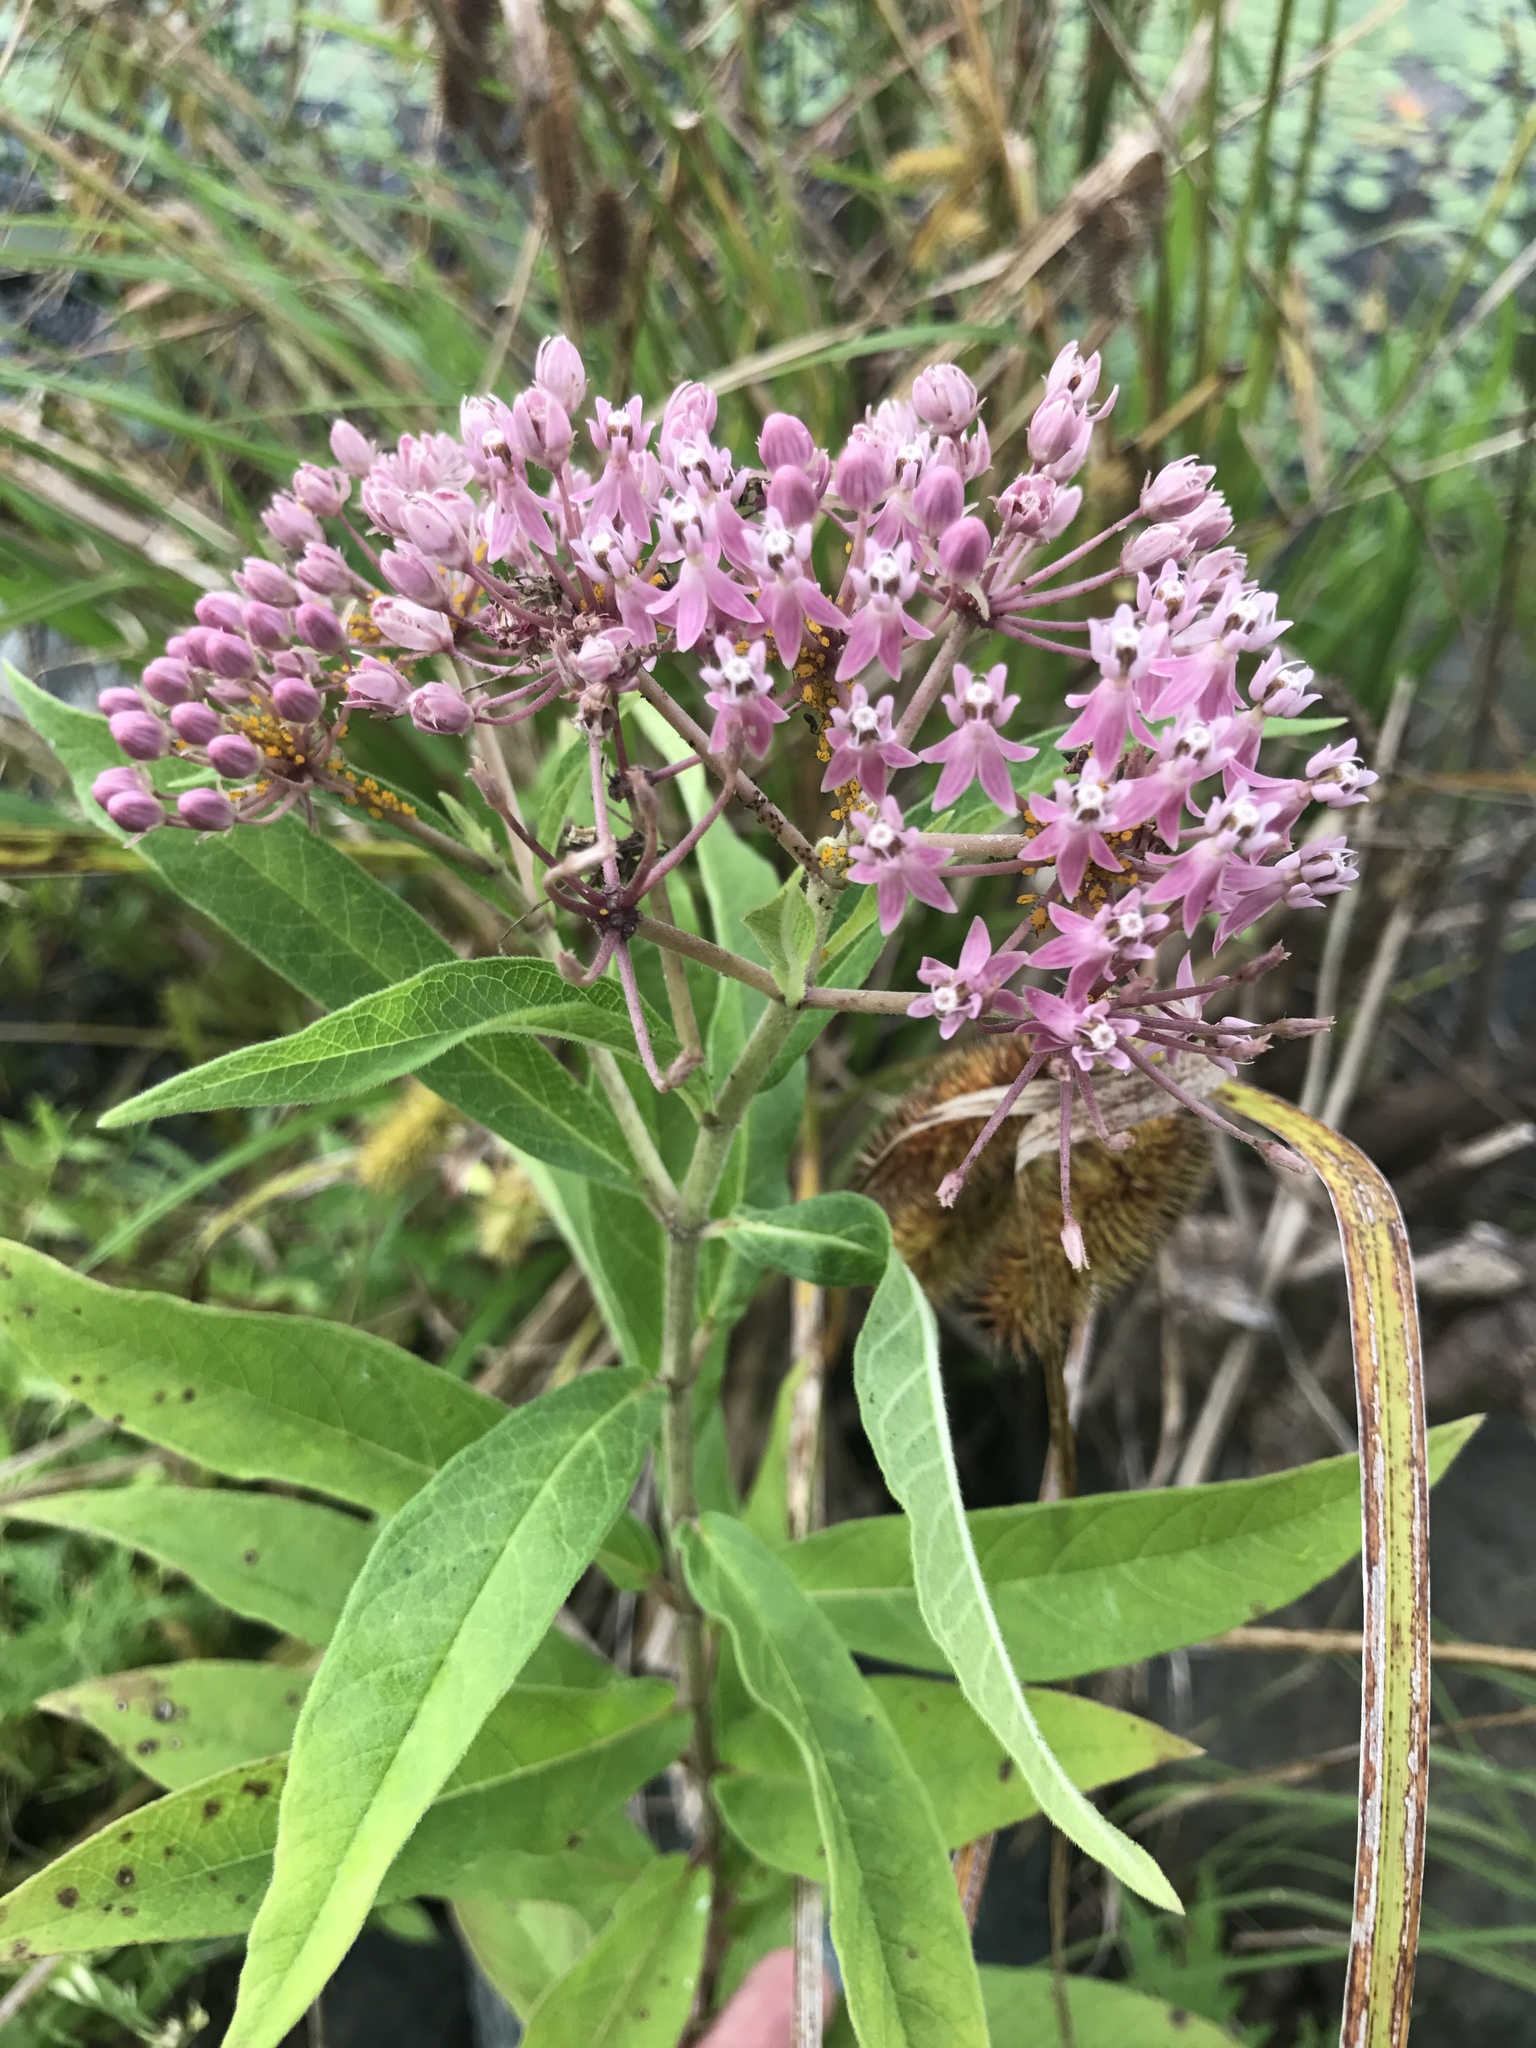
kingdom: Plantae
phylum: Tracheophyta
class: Magnoliopsida
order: Gentianales
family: Apocynaceae
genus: Asclepias
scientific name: Asclepias incarnata
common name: Swamp milkweed
